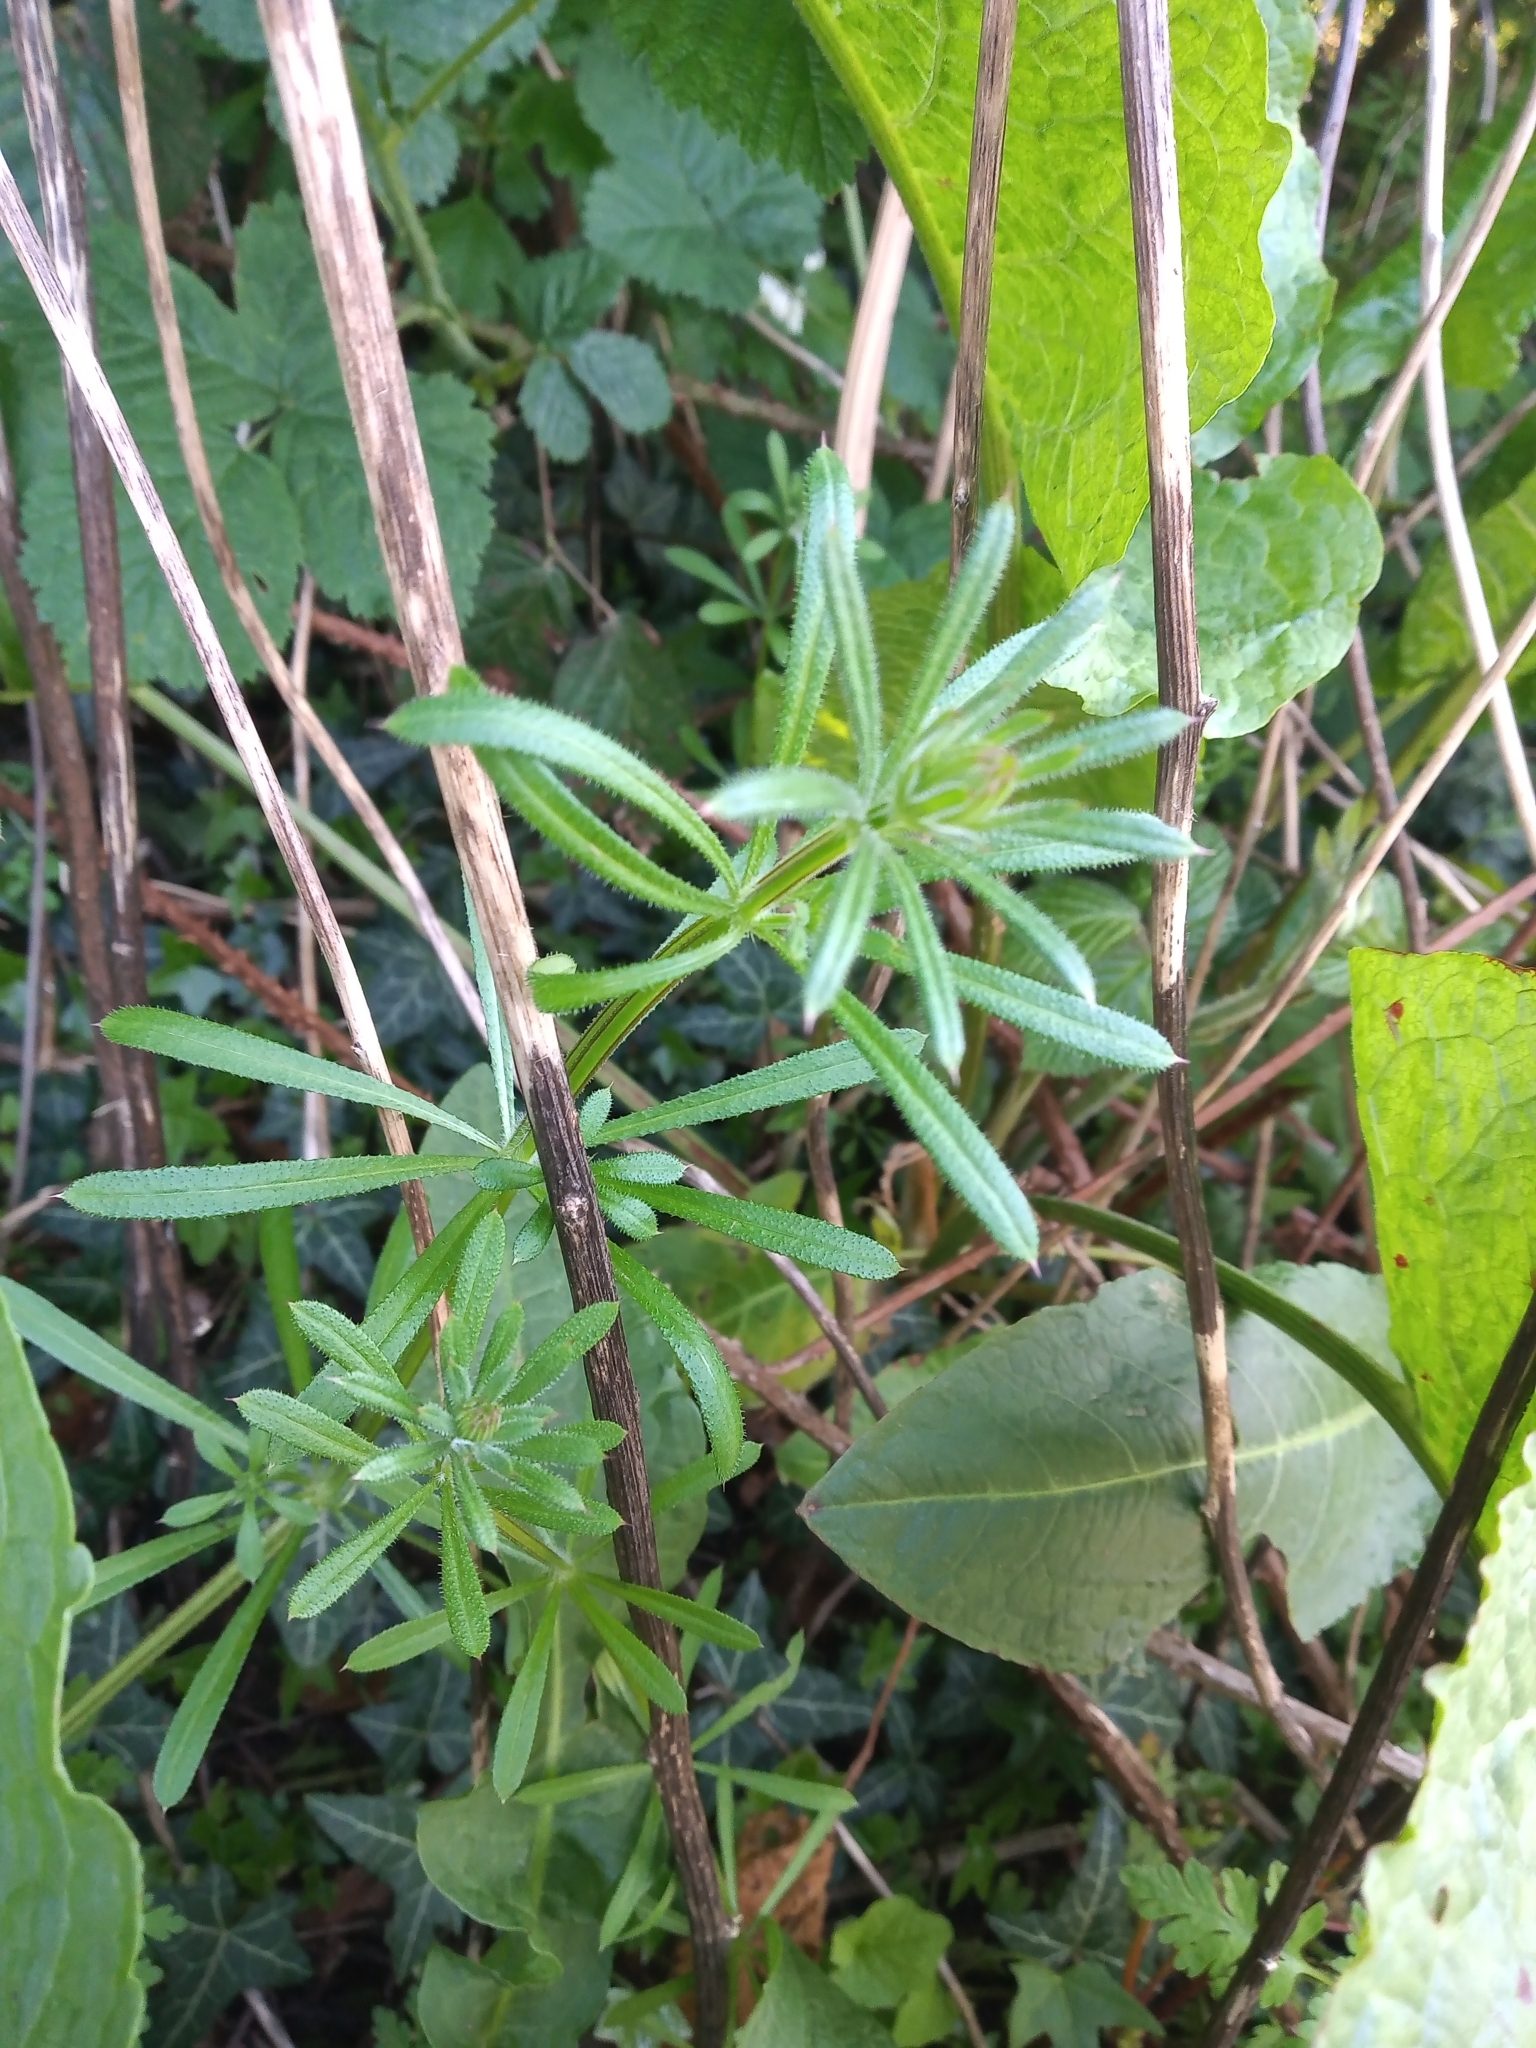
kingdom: Plantae
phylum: Tracheophyta
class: Magnoliopsida
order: Gentianales
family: Rubiaceae
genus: Galium
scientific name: Galium aparine
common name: Cleavers
